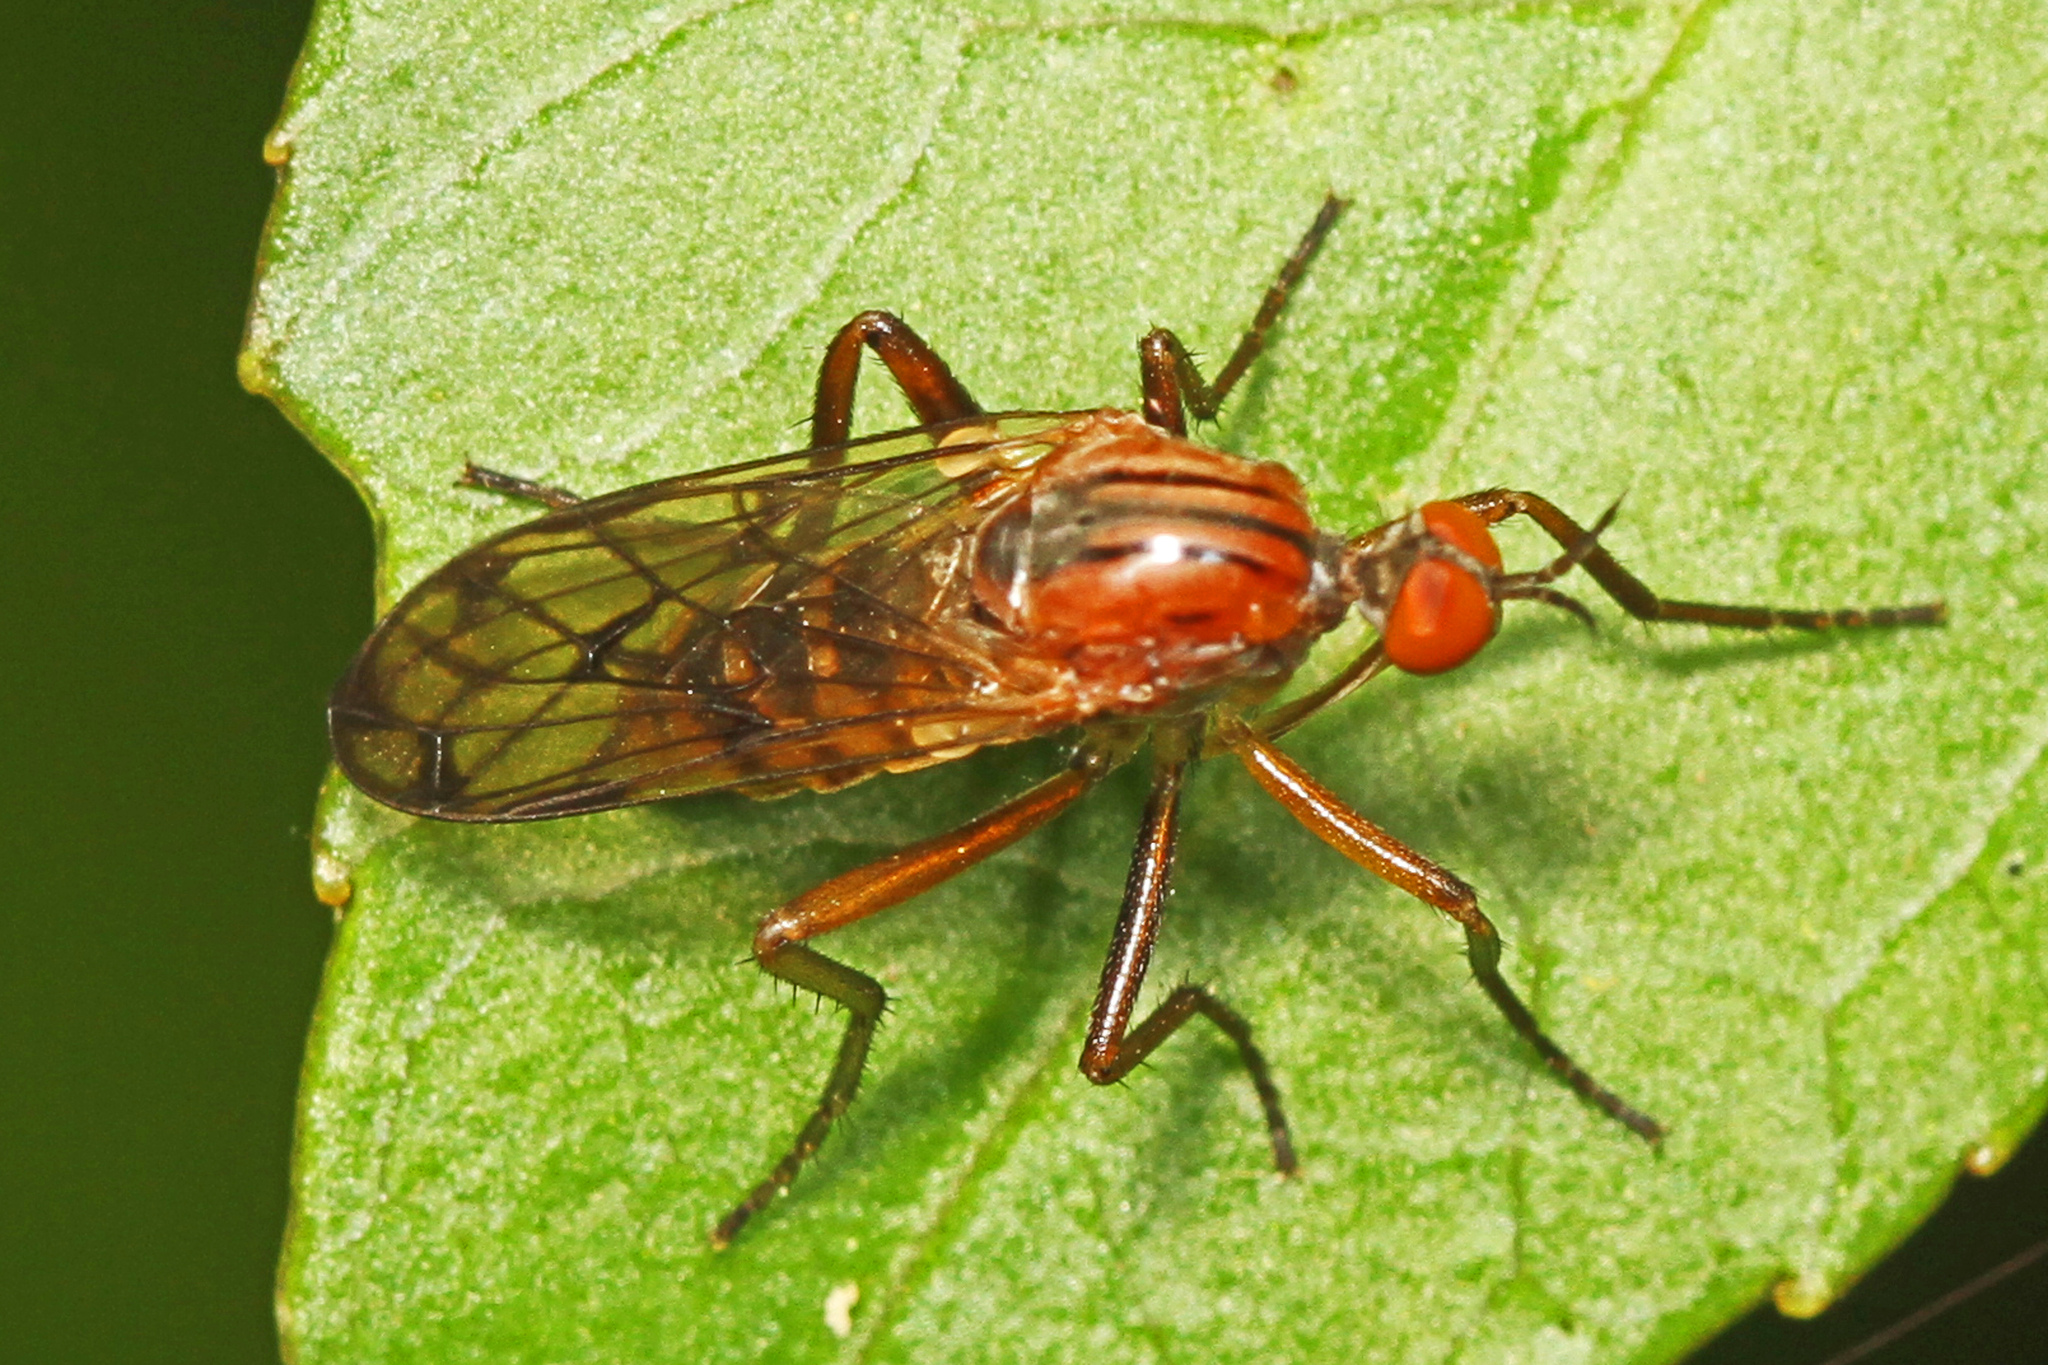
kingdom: Animalia
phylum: Arthropoda
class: Insecta
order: Diptera
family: Empididae
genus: Empis
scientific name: Empis tridentata
